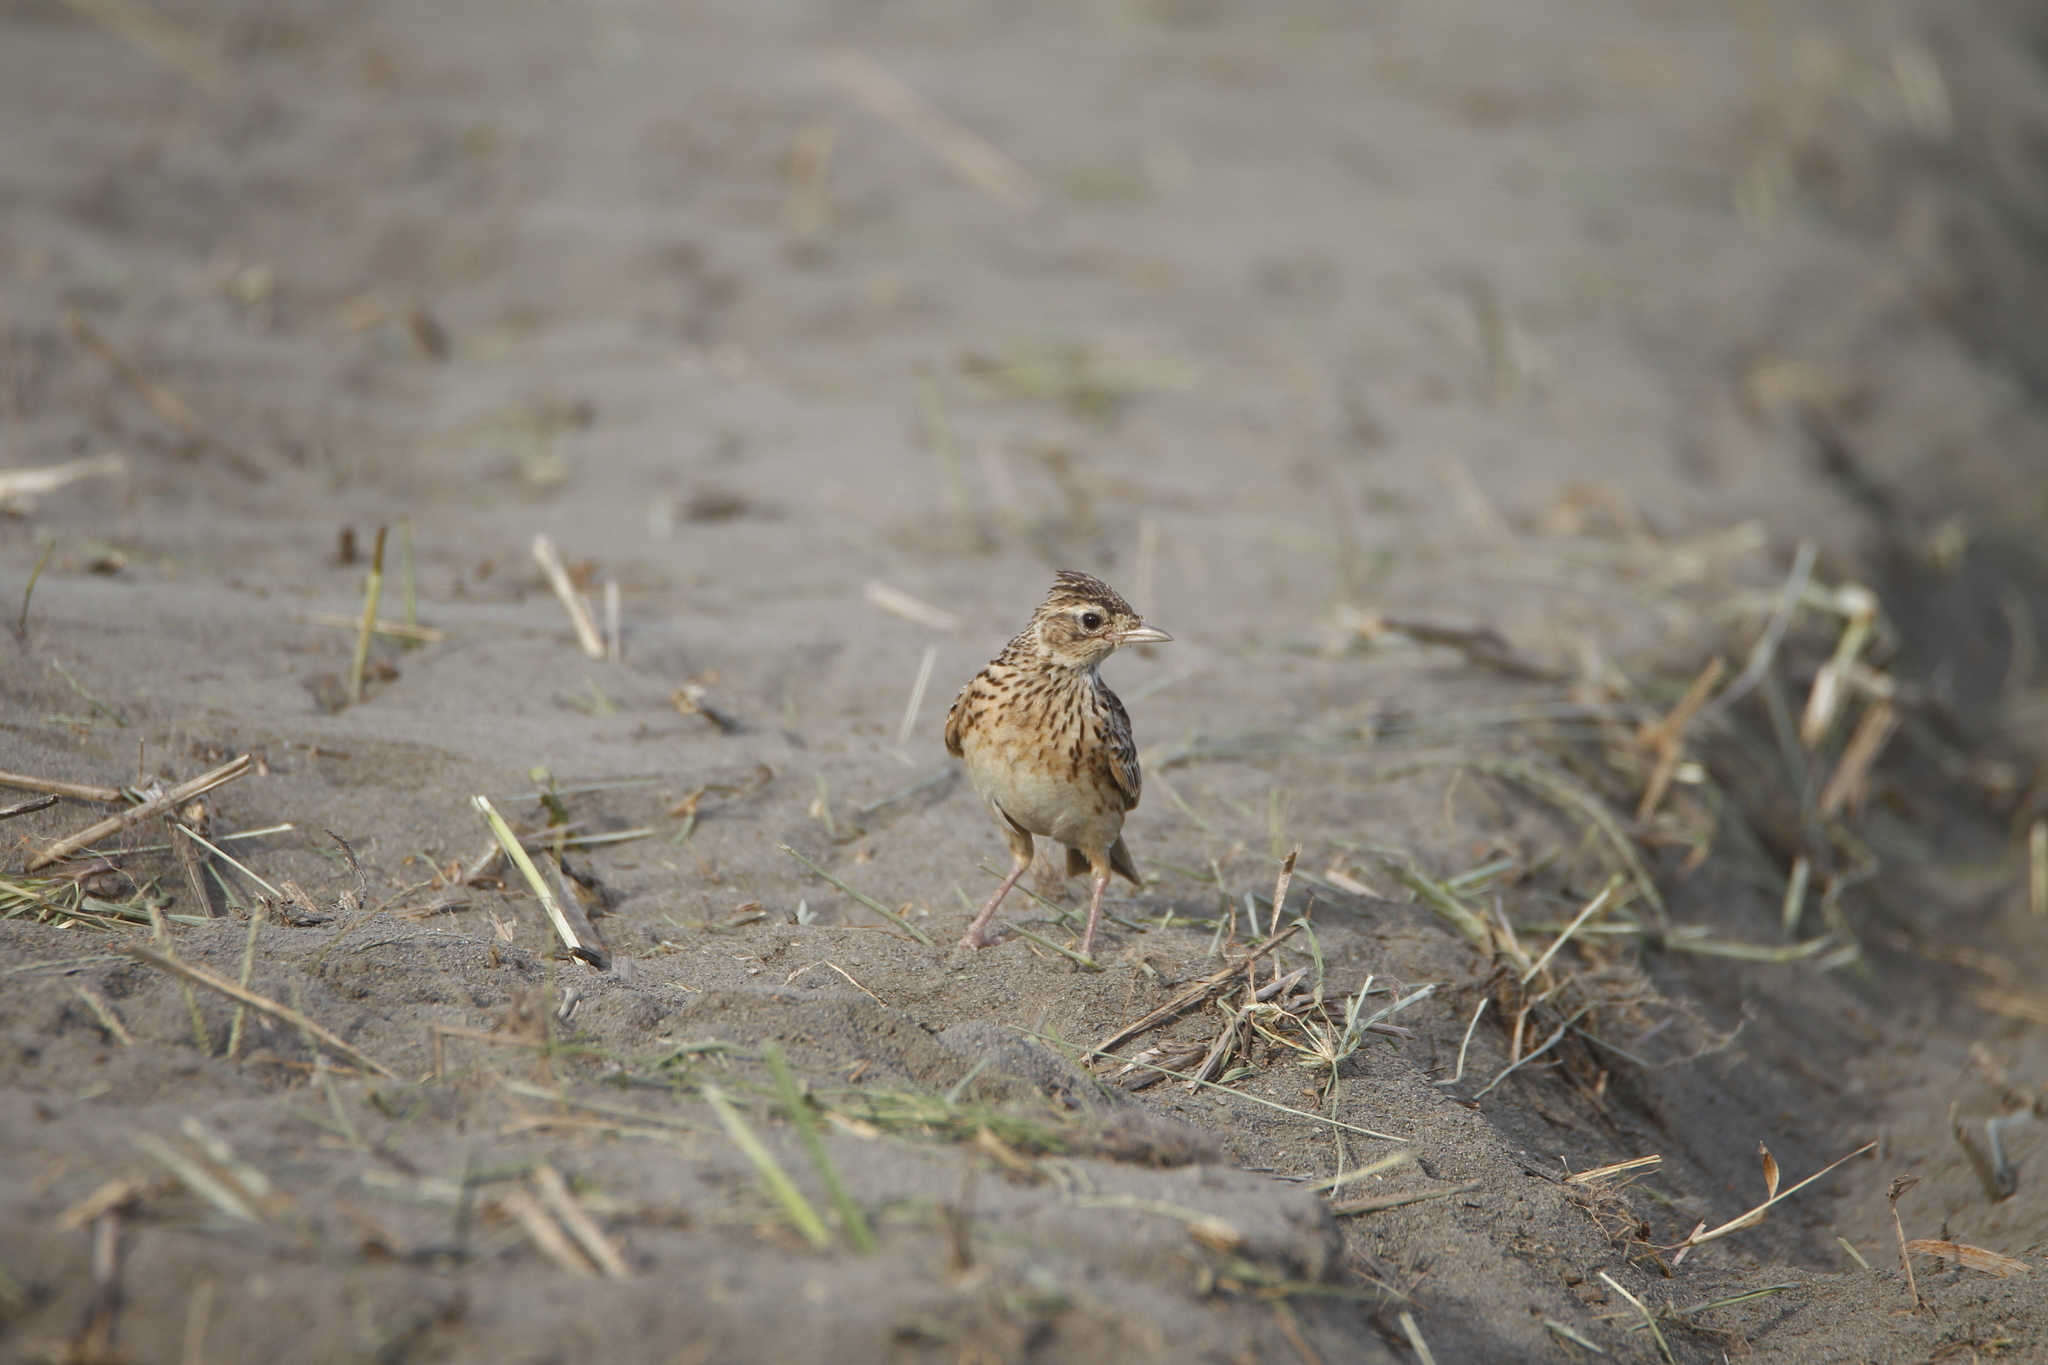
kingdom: Animalia
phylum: Chordata
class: Aves
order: Passeriformes
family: Alaudidae
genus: Alauda
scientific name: Alauda gulgula
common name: Oriental skylark
